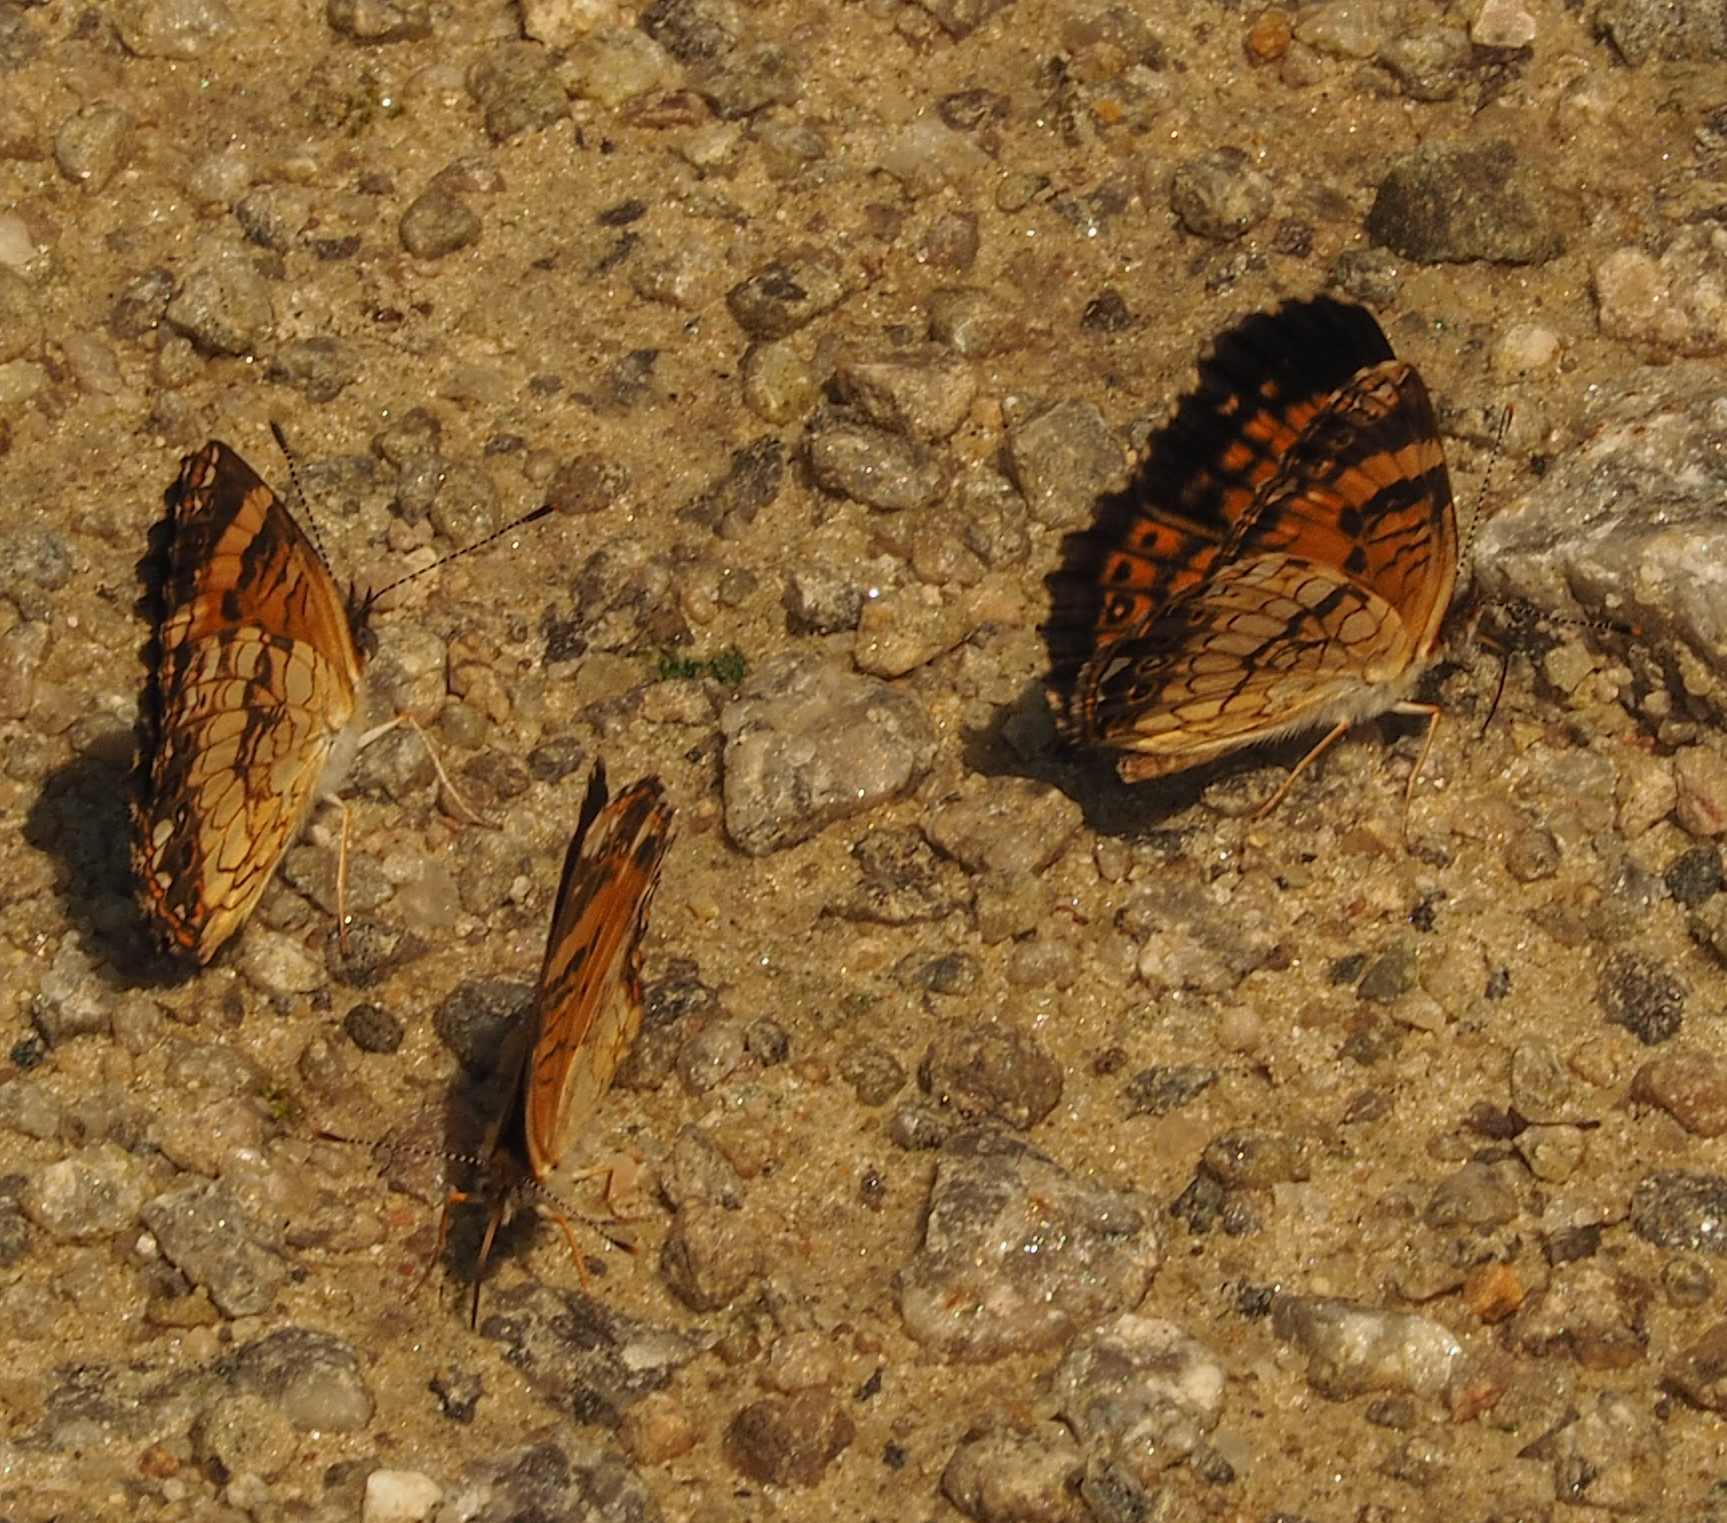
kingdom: Animalia
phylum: Arthropoda
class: Insecta
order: Lepidoptera
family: Nymphalidae
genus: Chlosyne
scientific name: Chlosyne nycteis
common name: Silvery checkerspot
